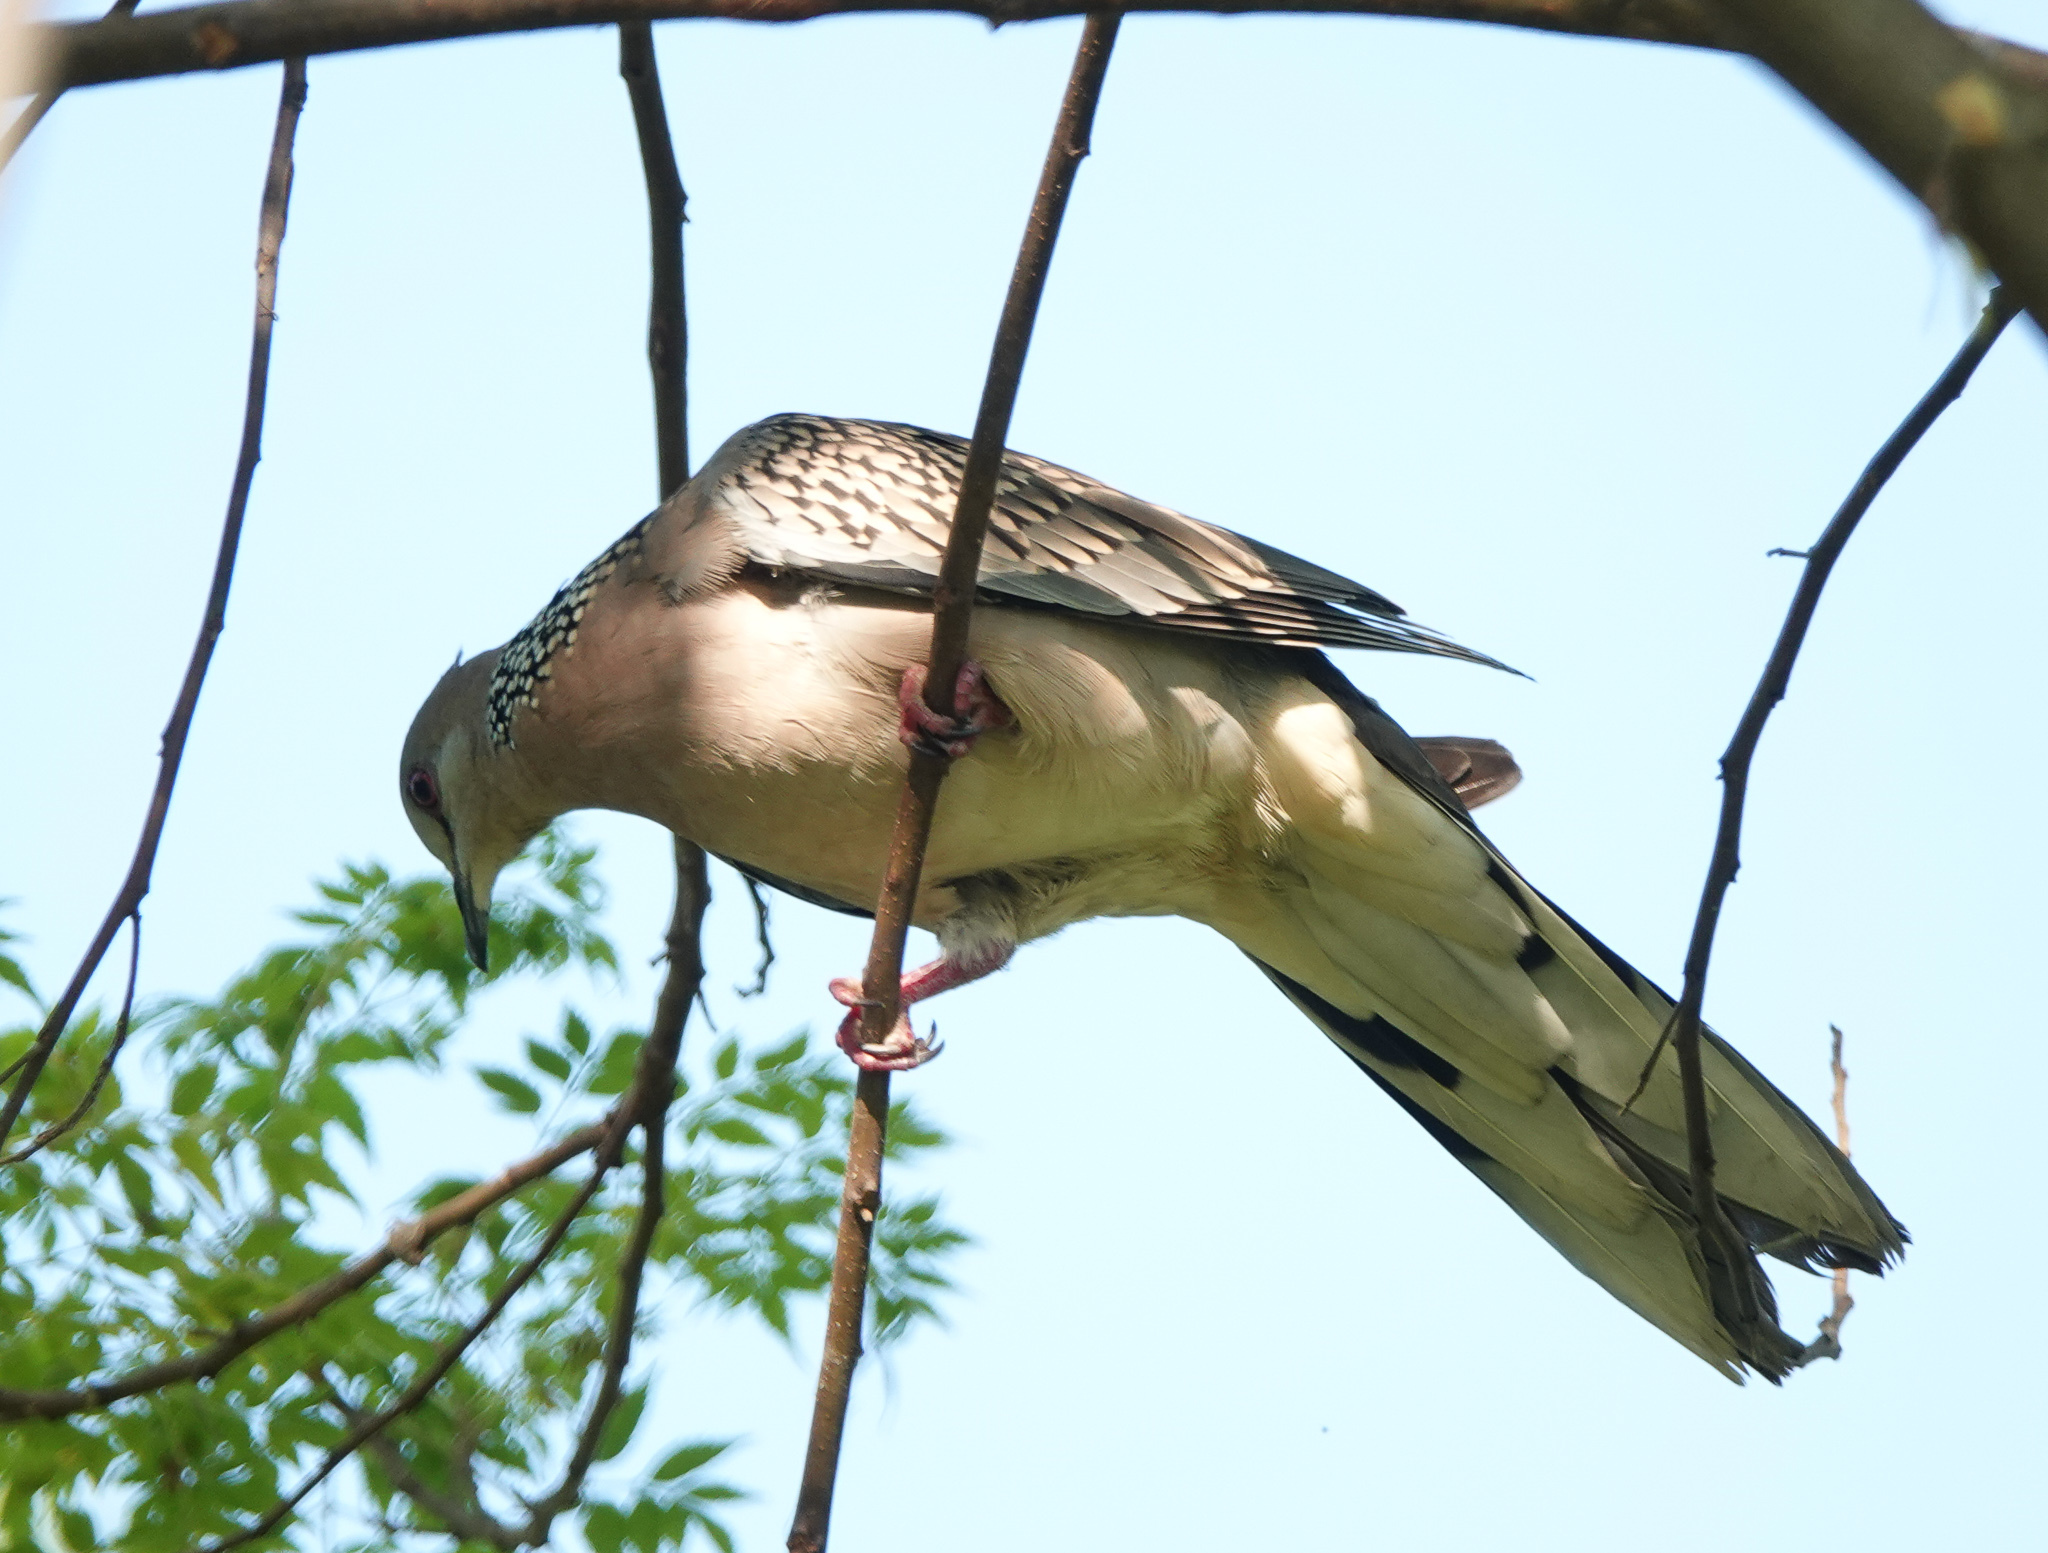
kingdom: Animalia
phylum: Chordata
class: Aves
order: Columbiformes
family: Columbidae
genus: Spilopelia
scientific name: Spilopelia chinensis
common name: Spotted dove
